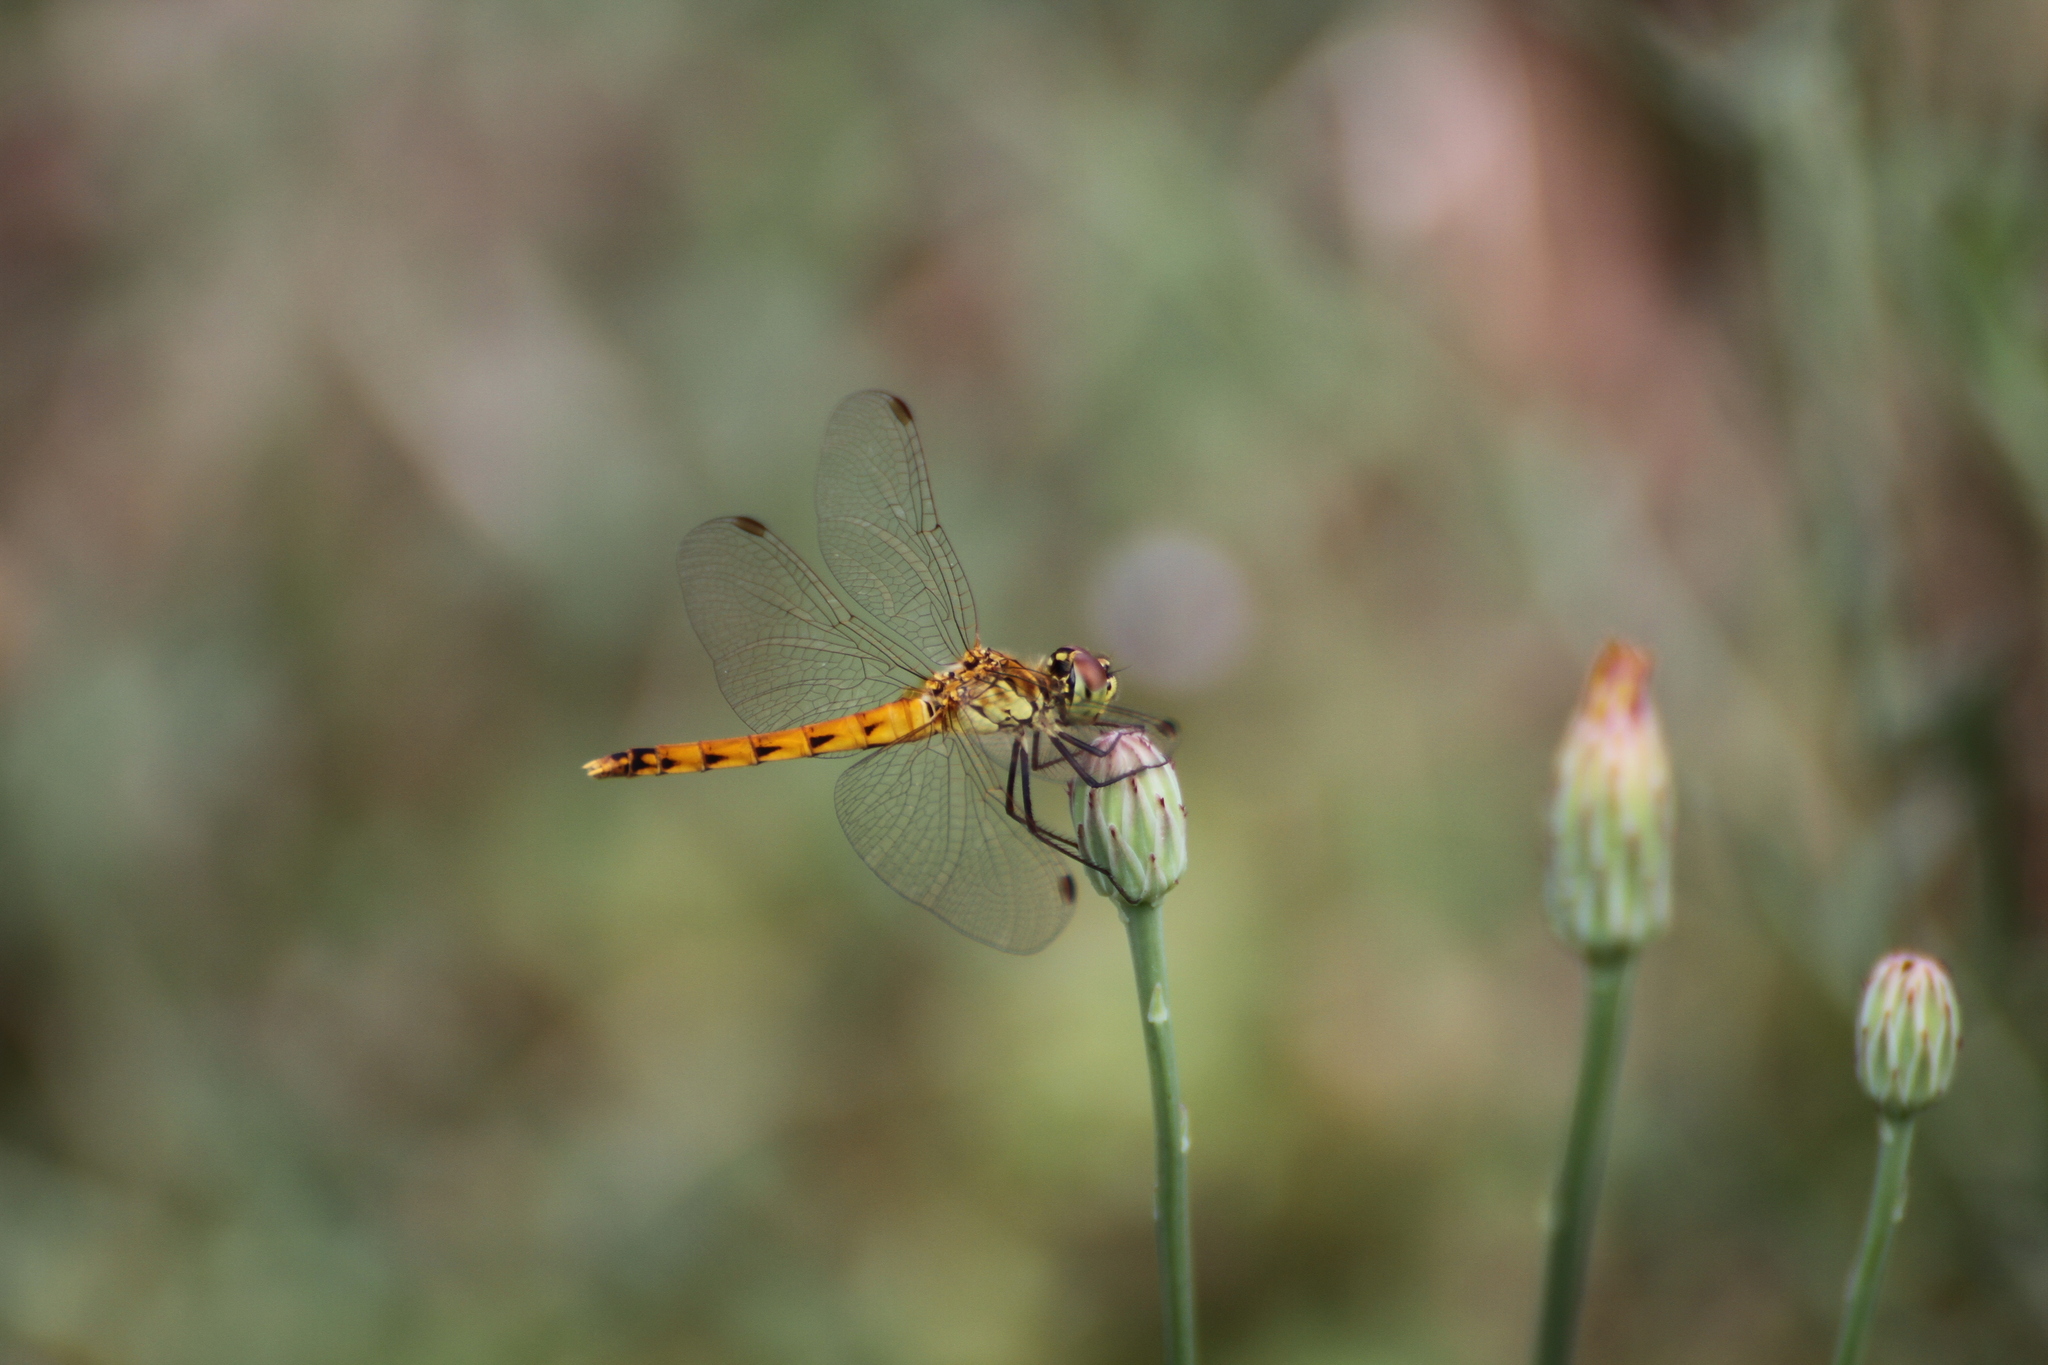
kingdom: Animalia
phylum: Arthropoda
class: Insecta
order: Odonata
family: Libellulidae
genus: Sympetrum
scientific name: Sympetrum depressiusculum
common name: Spotted darter
